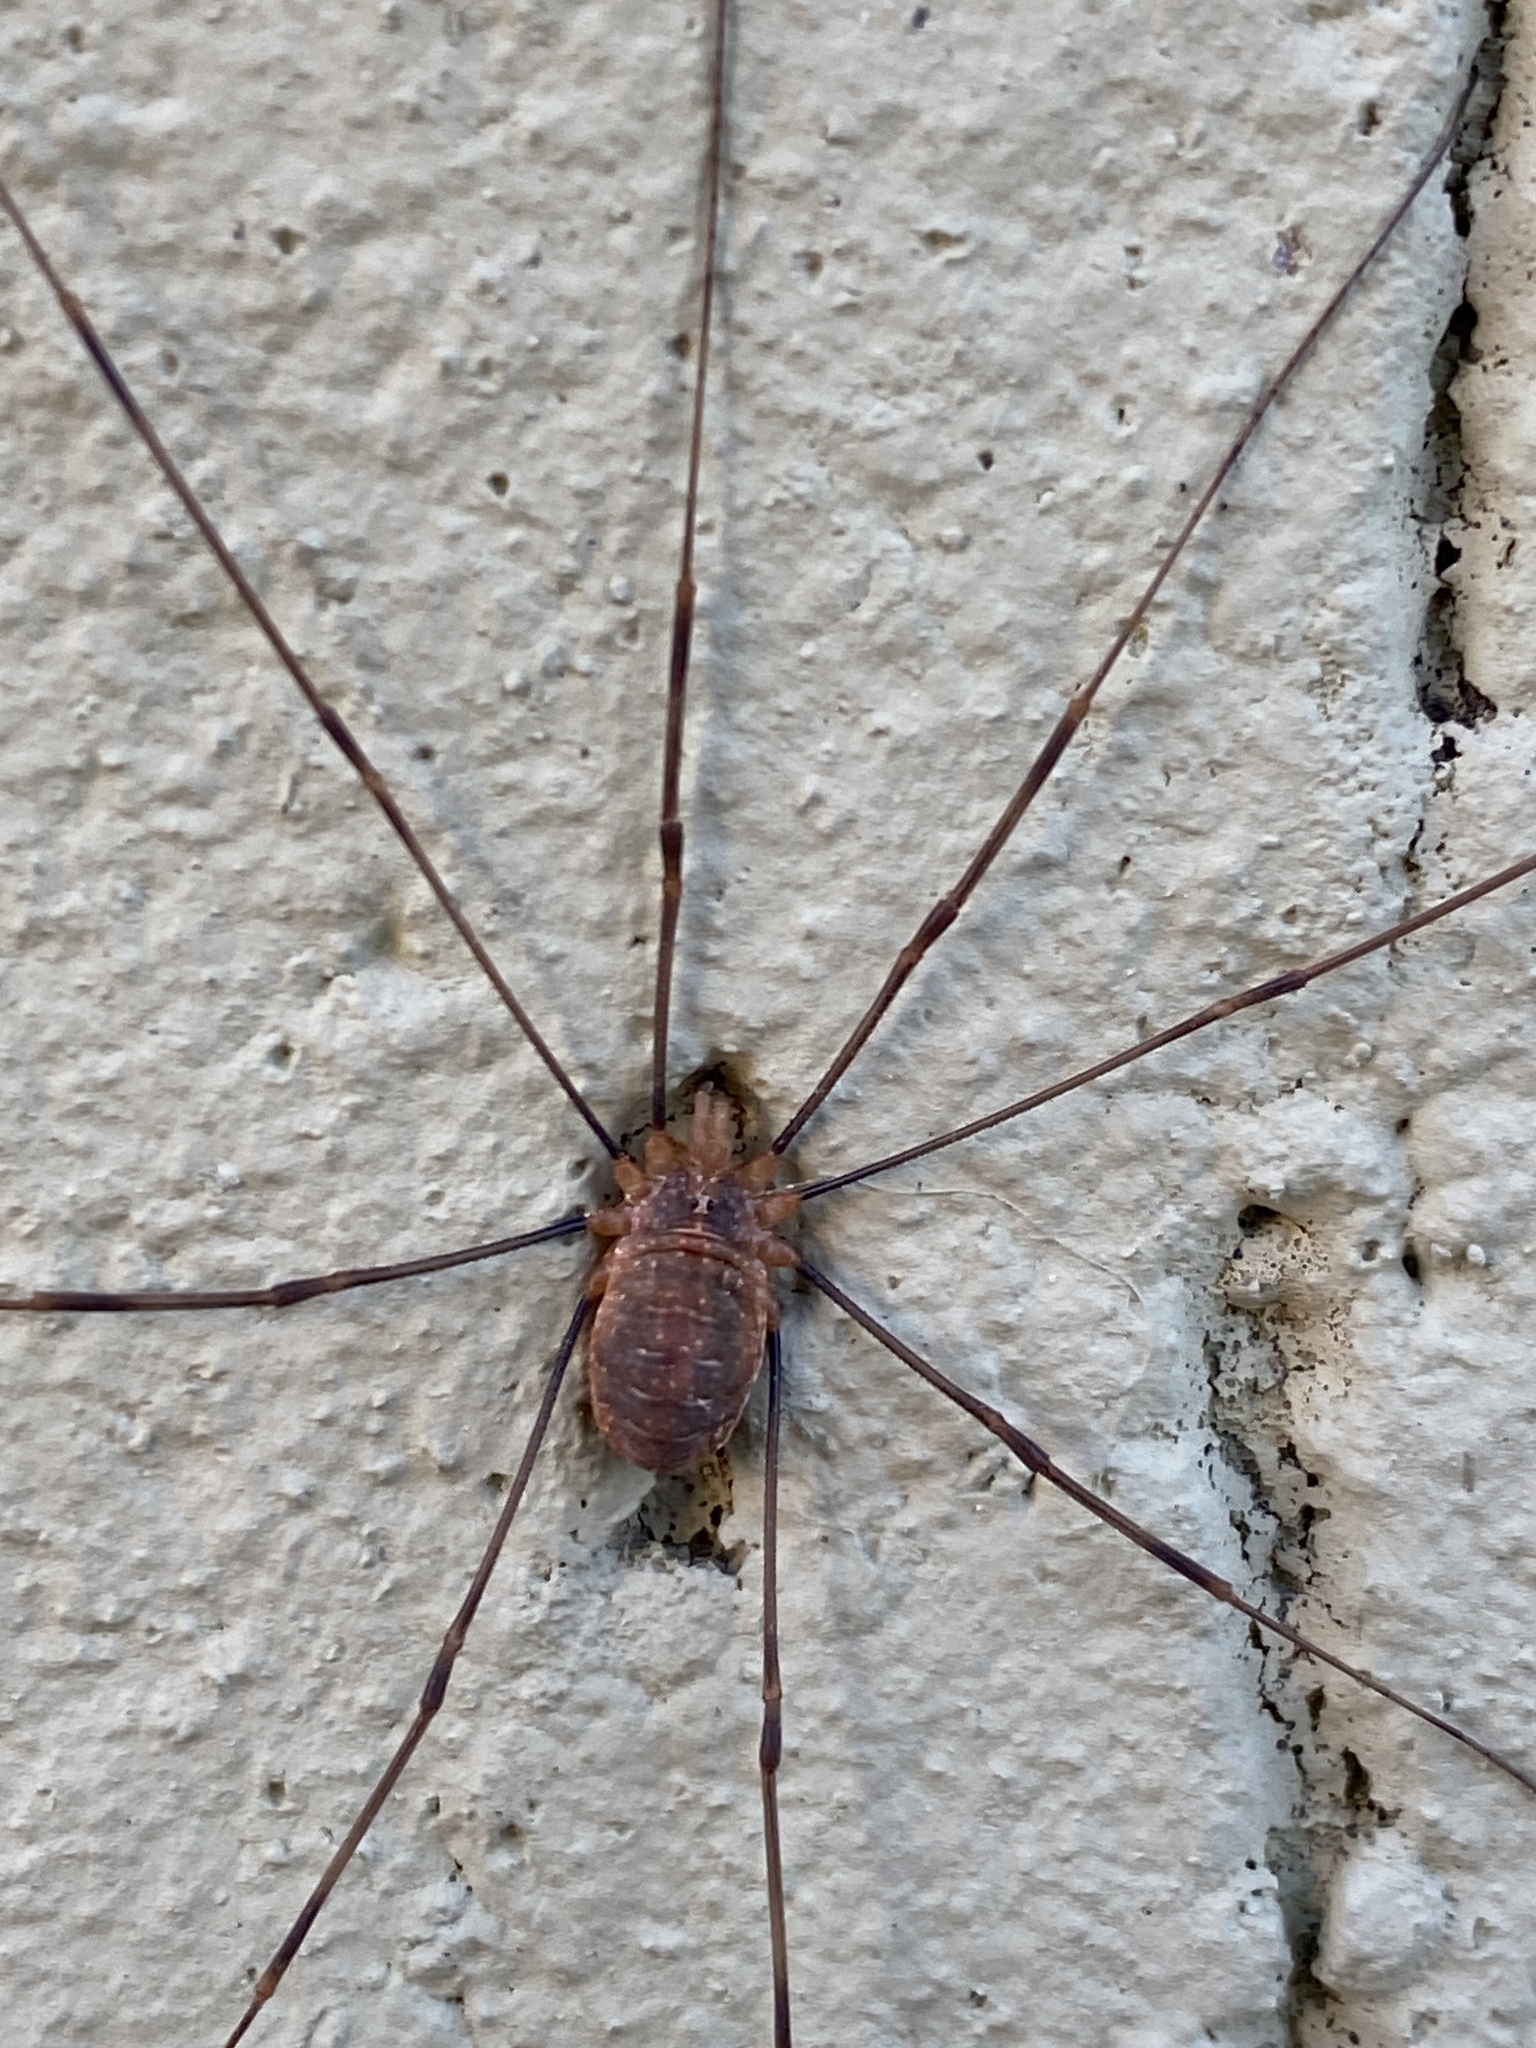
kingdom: Animalia
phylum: Arthropoda
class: Arachnida
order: Opiliones
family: Phalangiidae
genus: Opilio
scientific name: Opilio canestrinii
